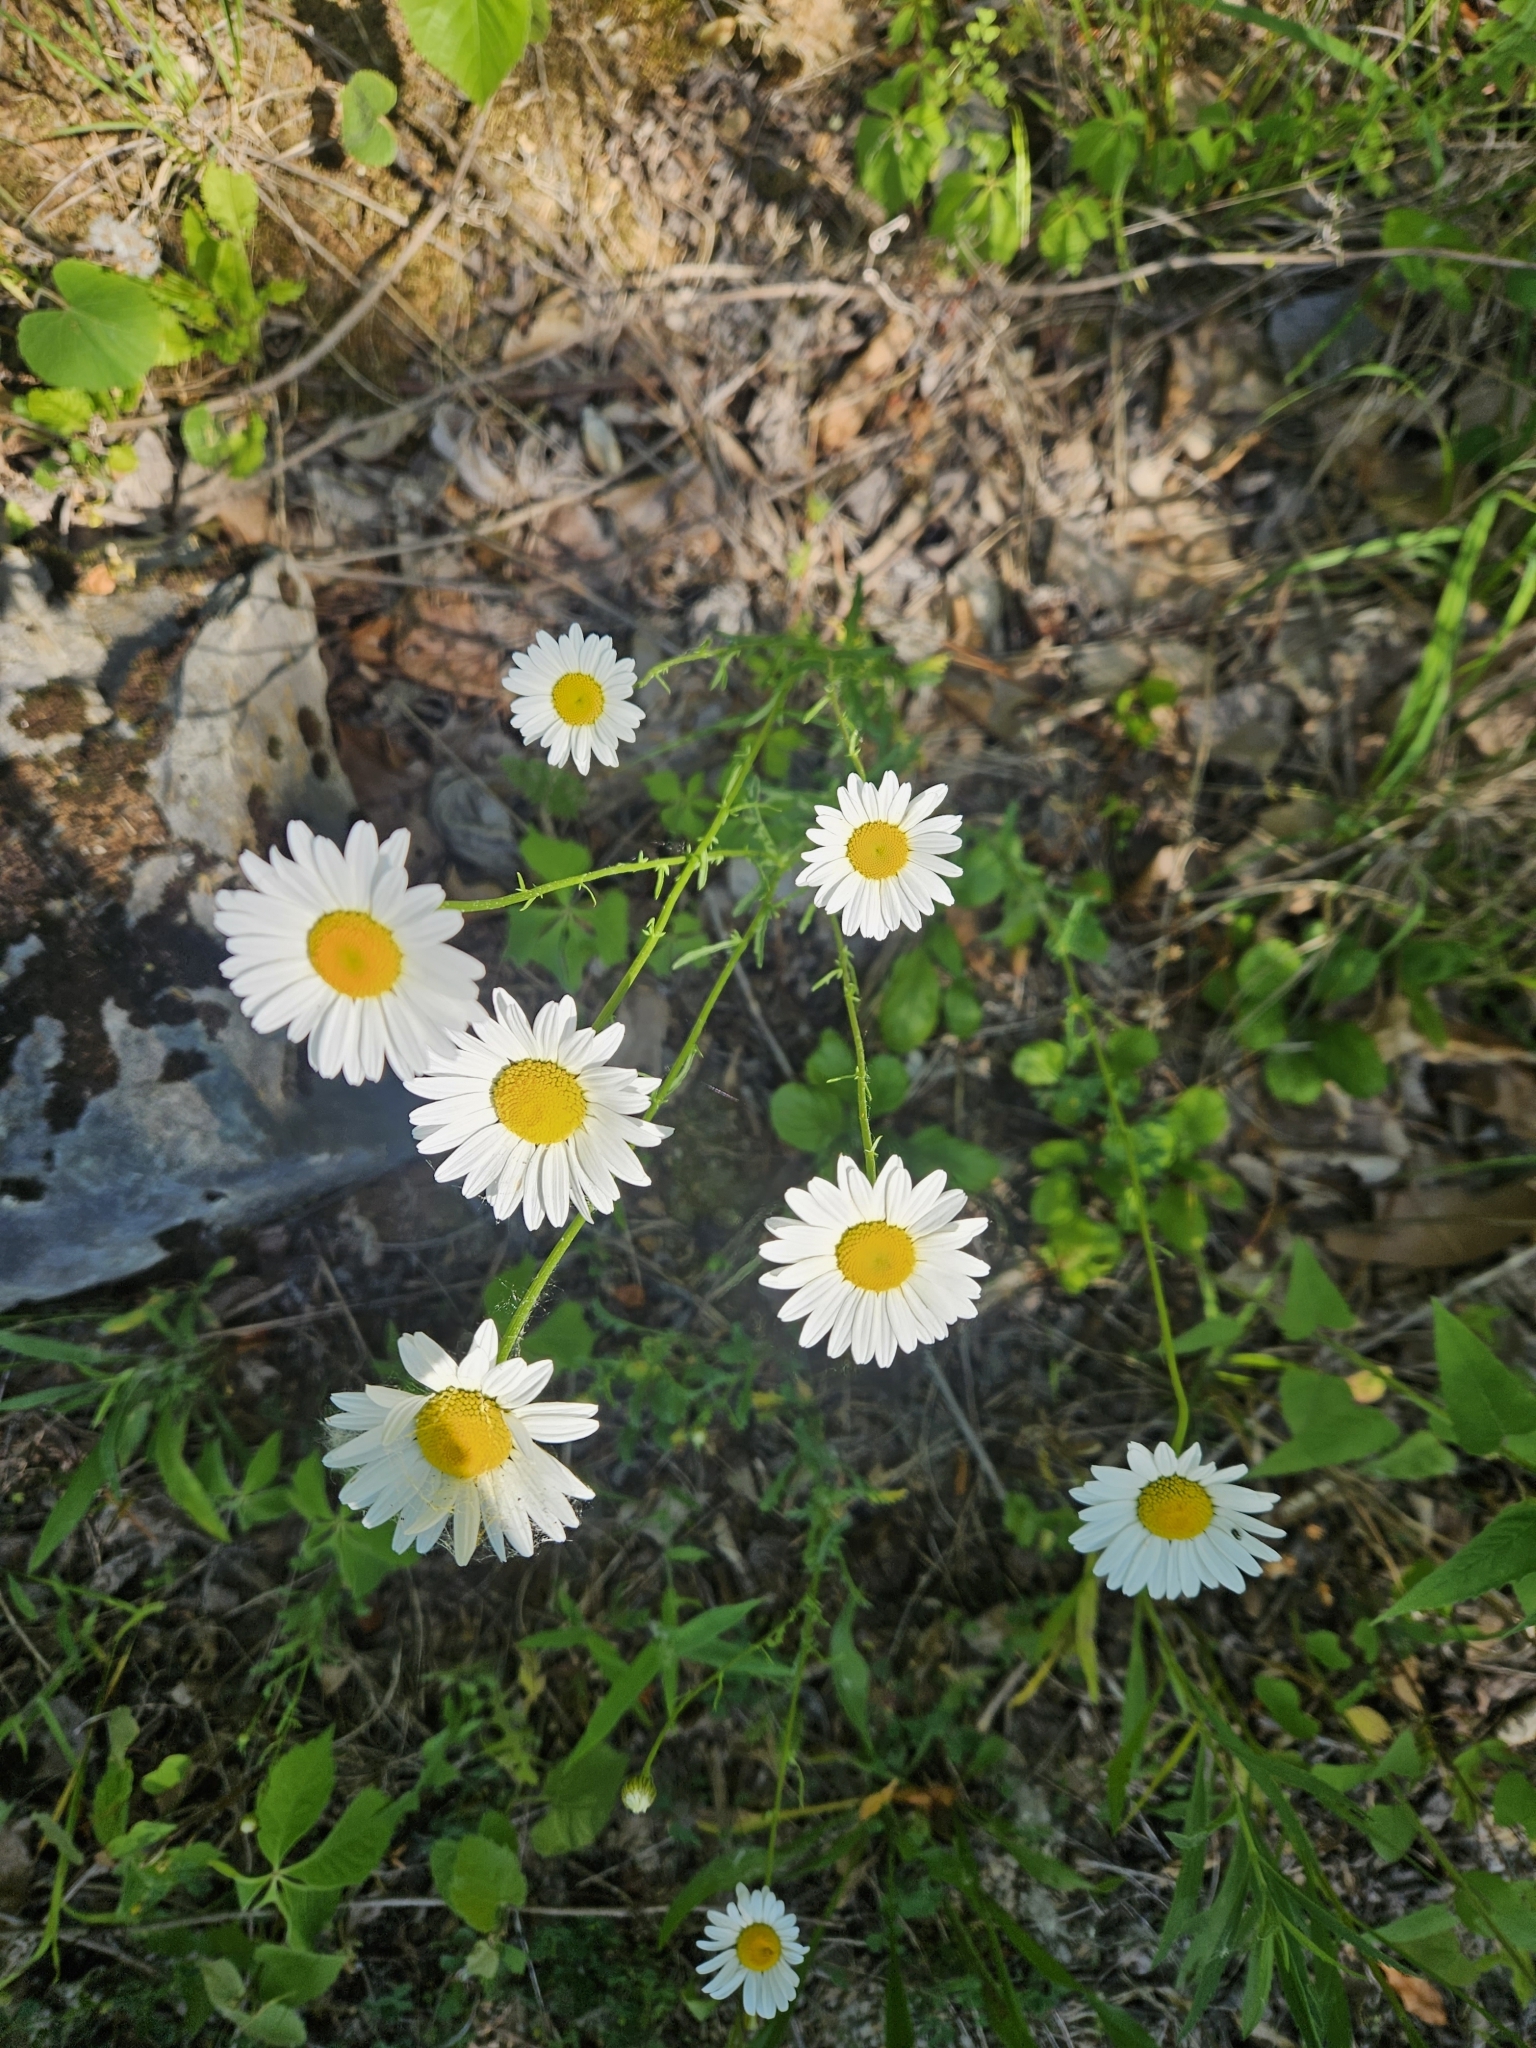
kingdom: Plantae
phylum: Tracheophyta
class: Magnoliopsida
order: Asterales
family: Asteraceae
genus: Leucanthemum
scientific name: Leucanthemum vulgare
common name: Oxeye daisy
